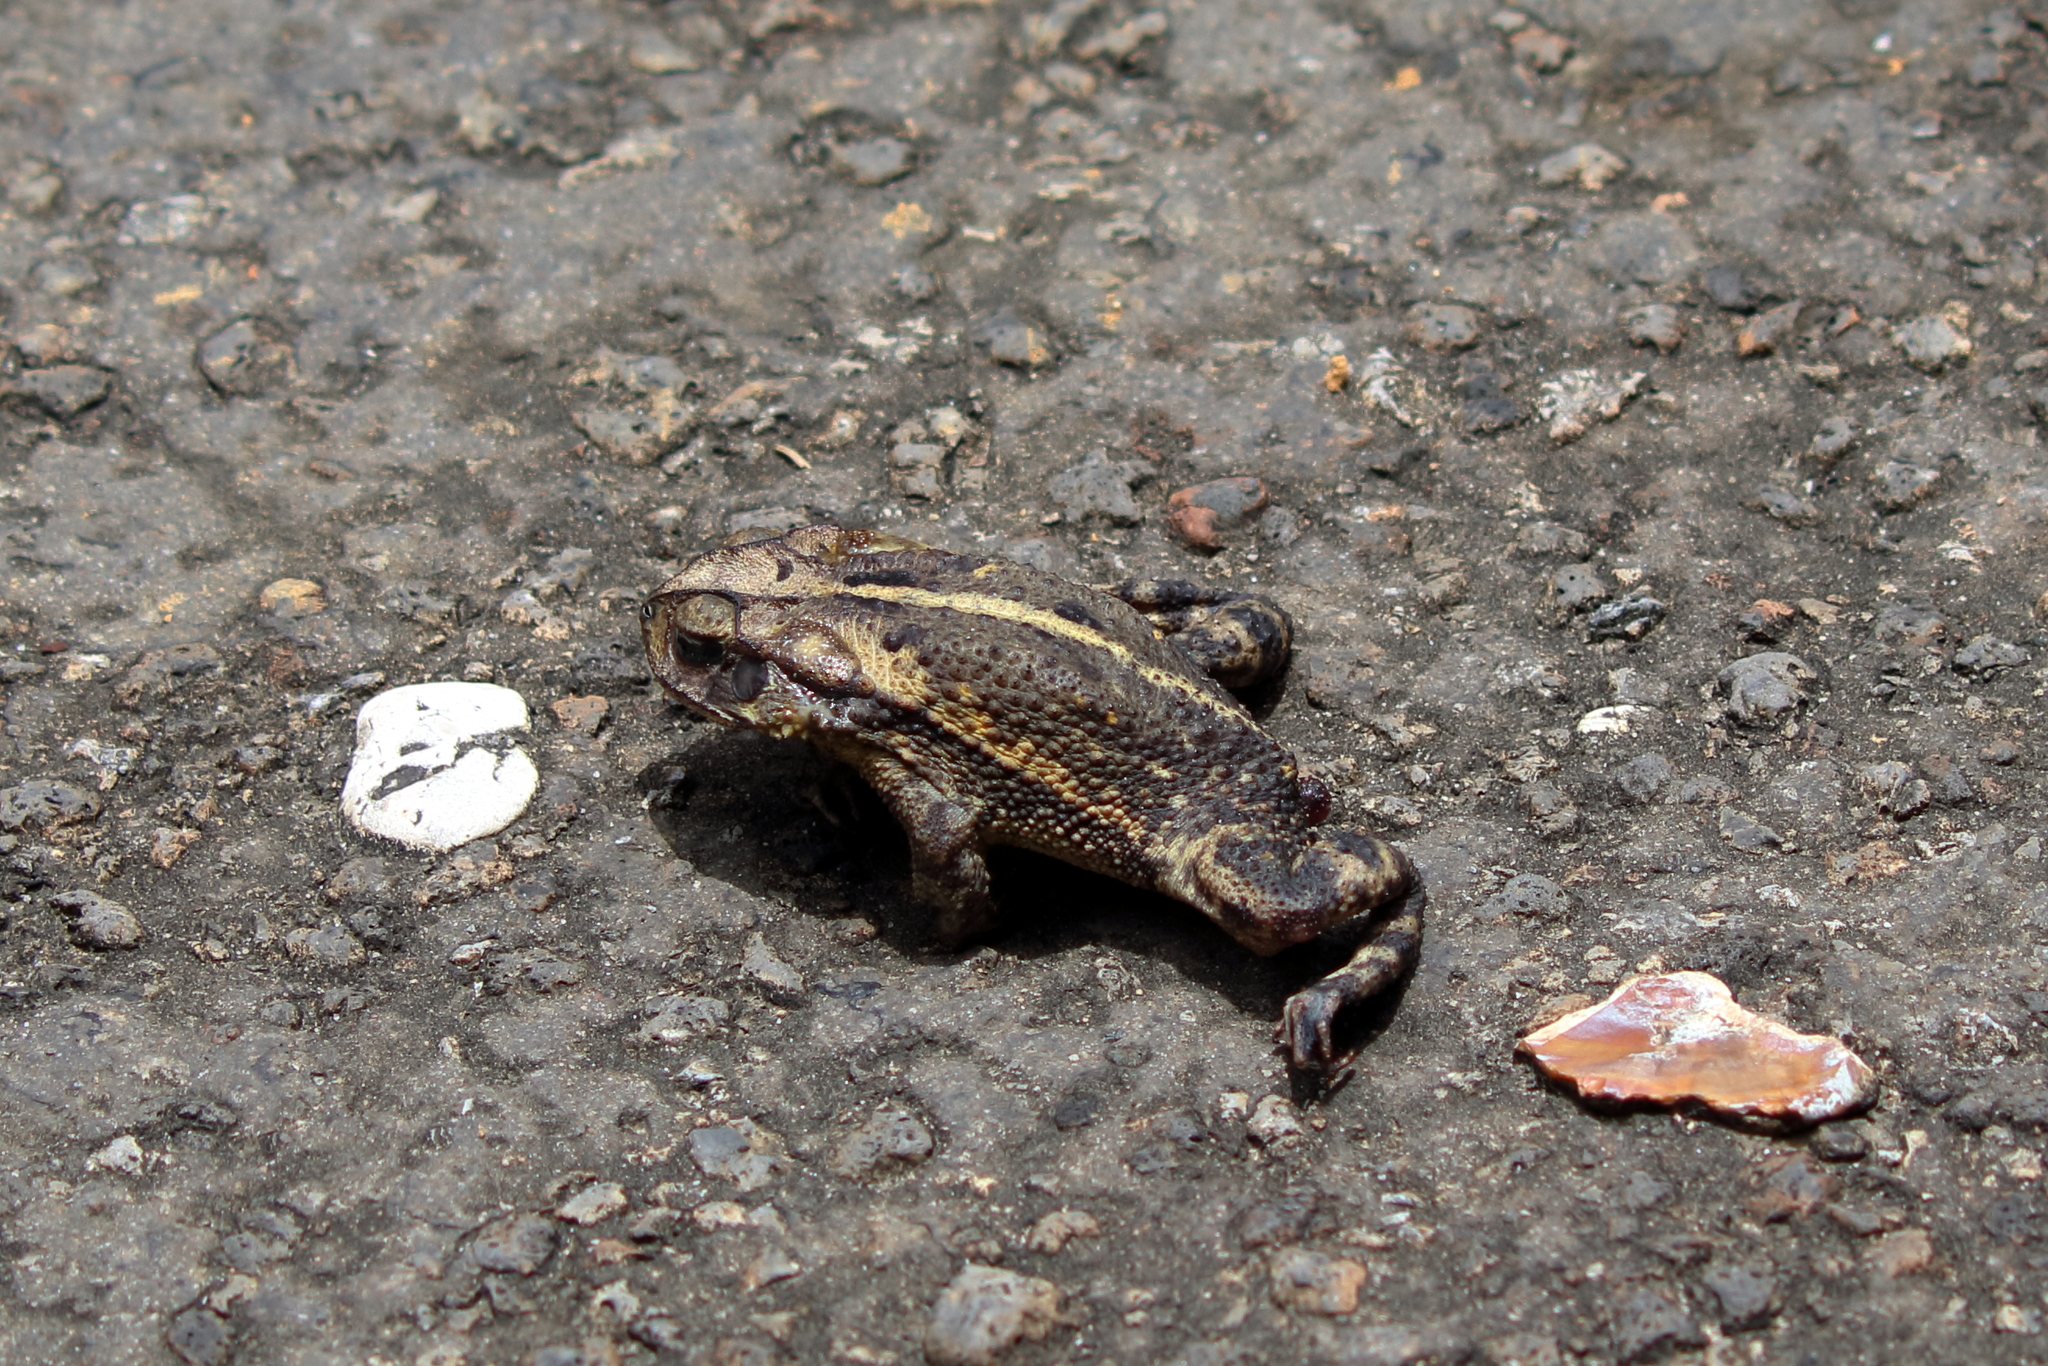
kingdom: Animalia
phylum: Chordata
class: Amphibia
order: Anura
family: Bufonidae
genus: Incilius
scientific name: Incilius nebulifer
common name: Gulf coast toad
